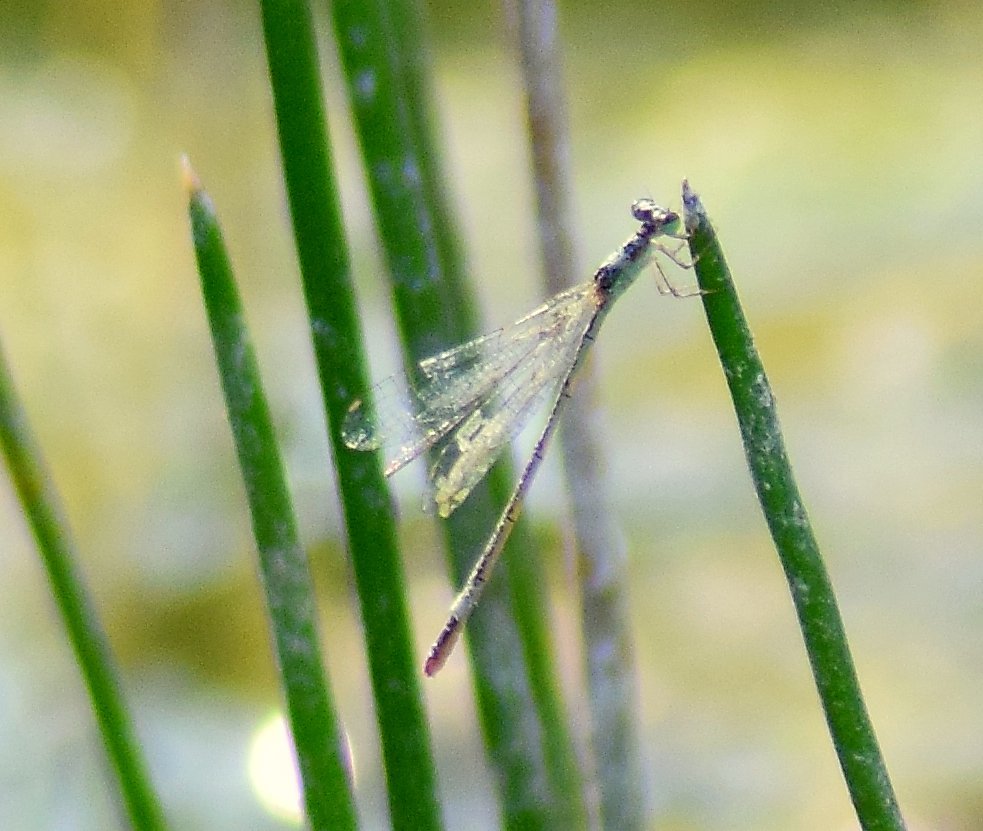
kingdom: Animalia
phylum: Arthropoda
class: Insecta
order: Odonata
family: Coenagrionidae
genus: Agriocnemis
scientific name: Agriocnemis pygmaea
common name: Pygmy wisp
